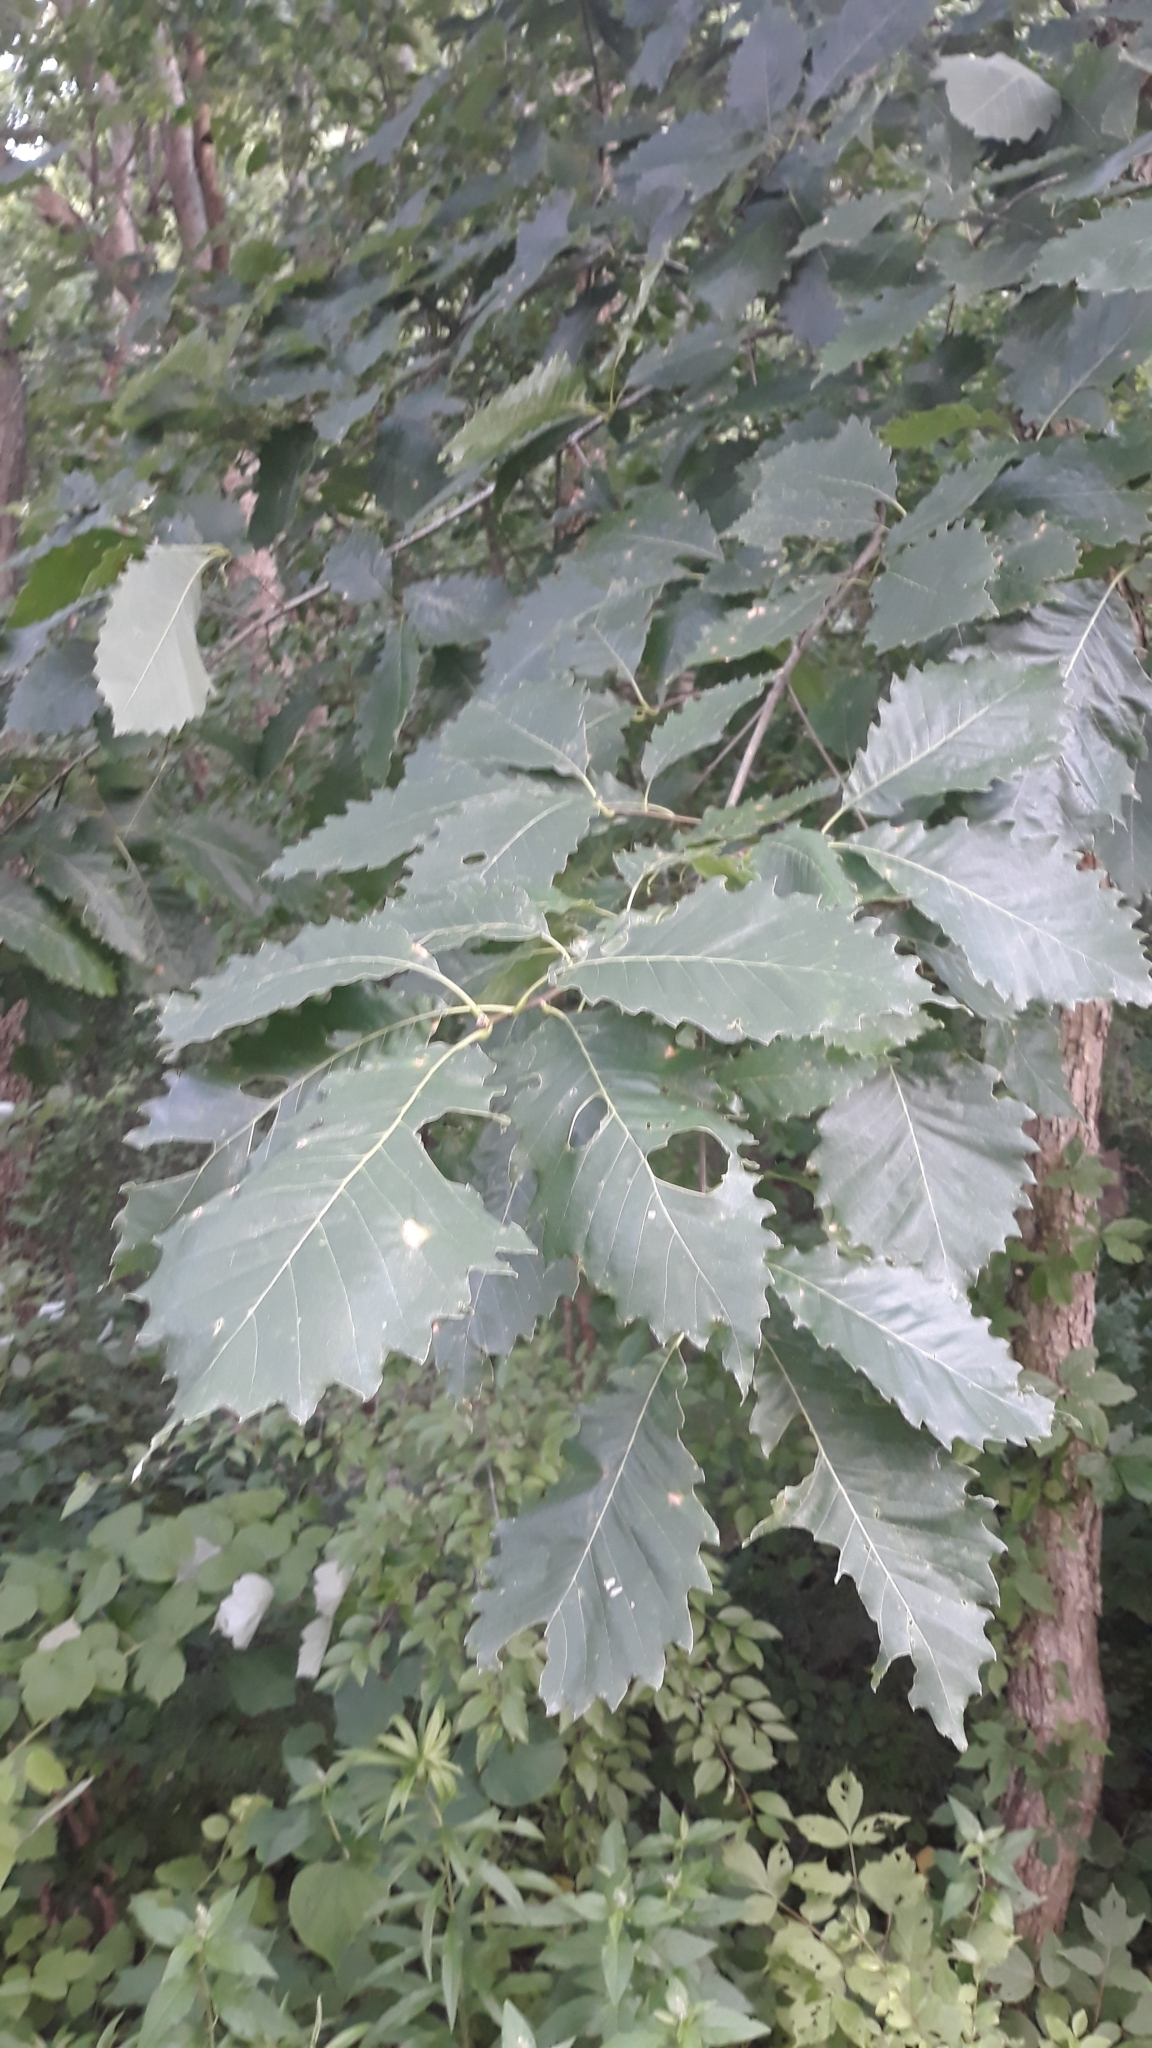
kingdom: Plantae
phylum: Tracheophyta
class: Magnoliopsida
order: Fagales
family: Fagaceae
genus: Quercus
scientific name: Quercus muehlenbergii
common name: Chinkapin oak
